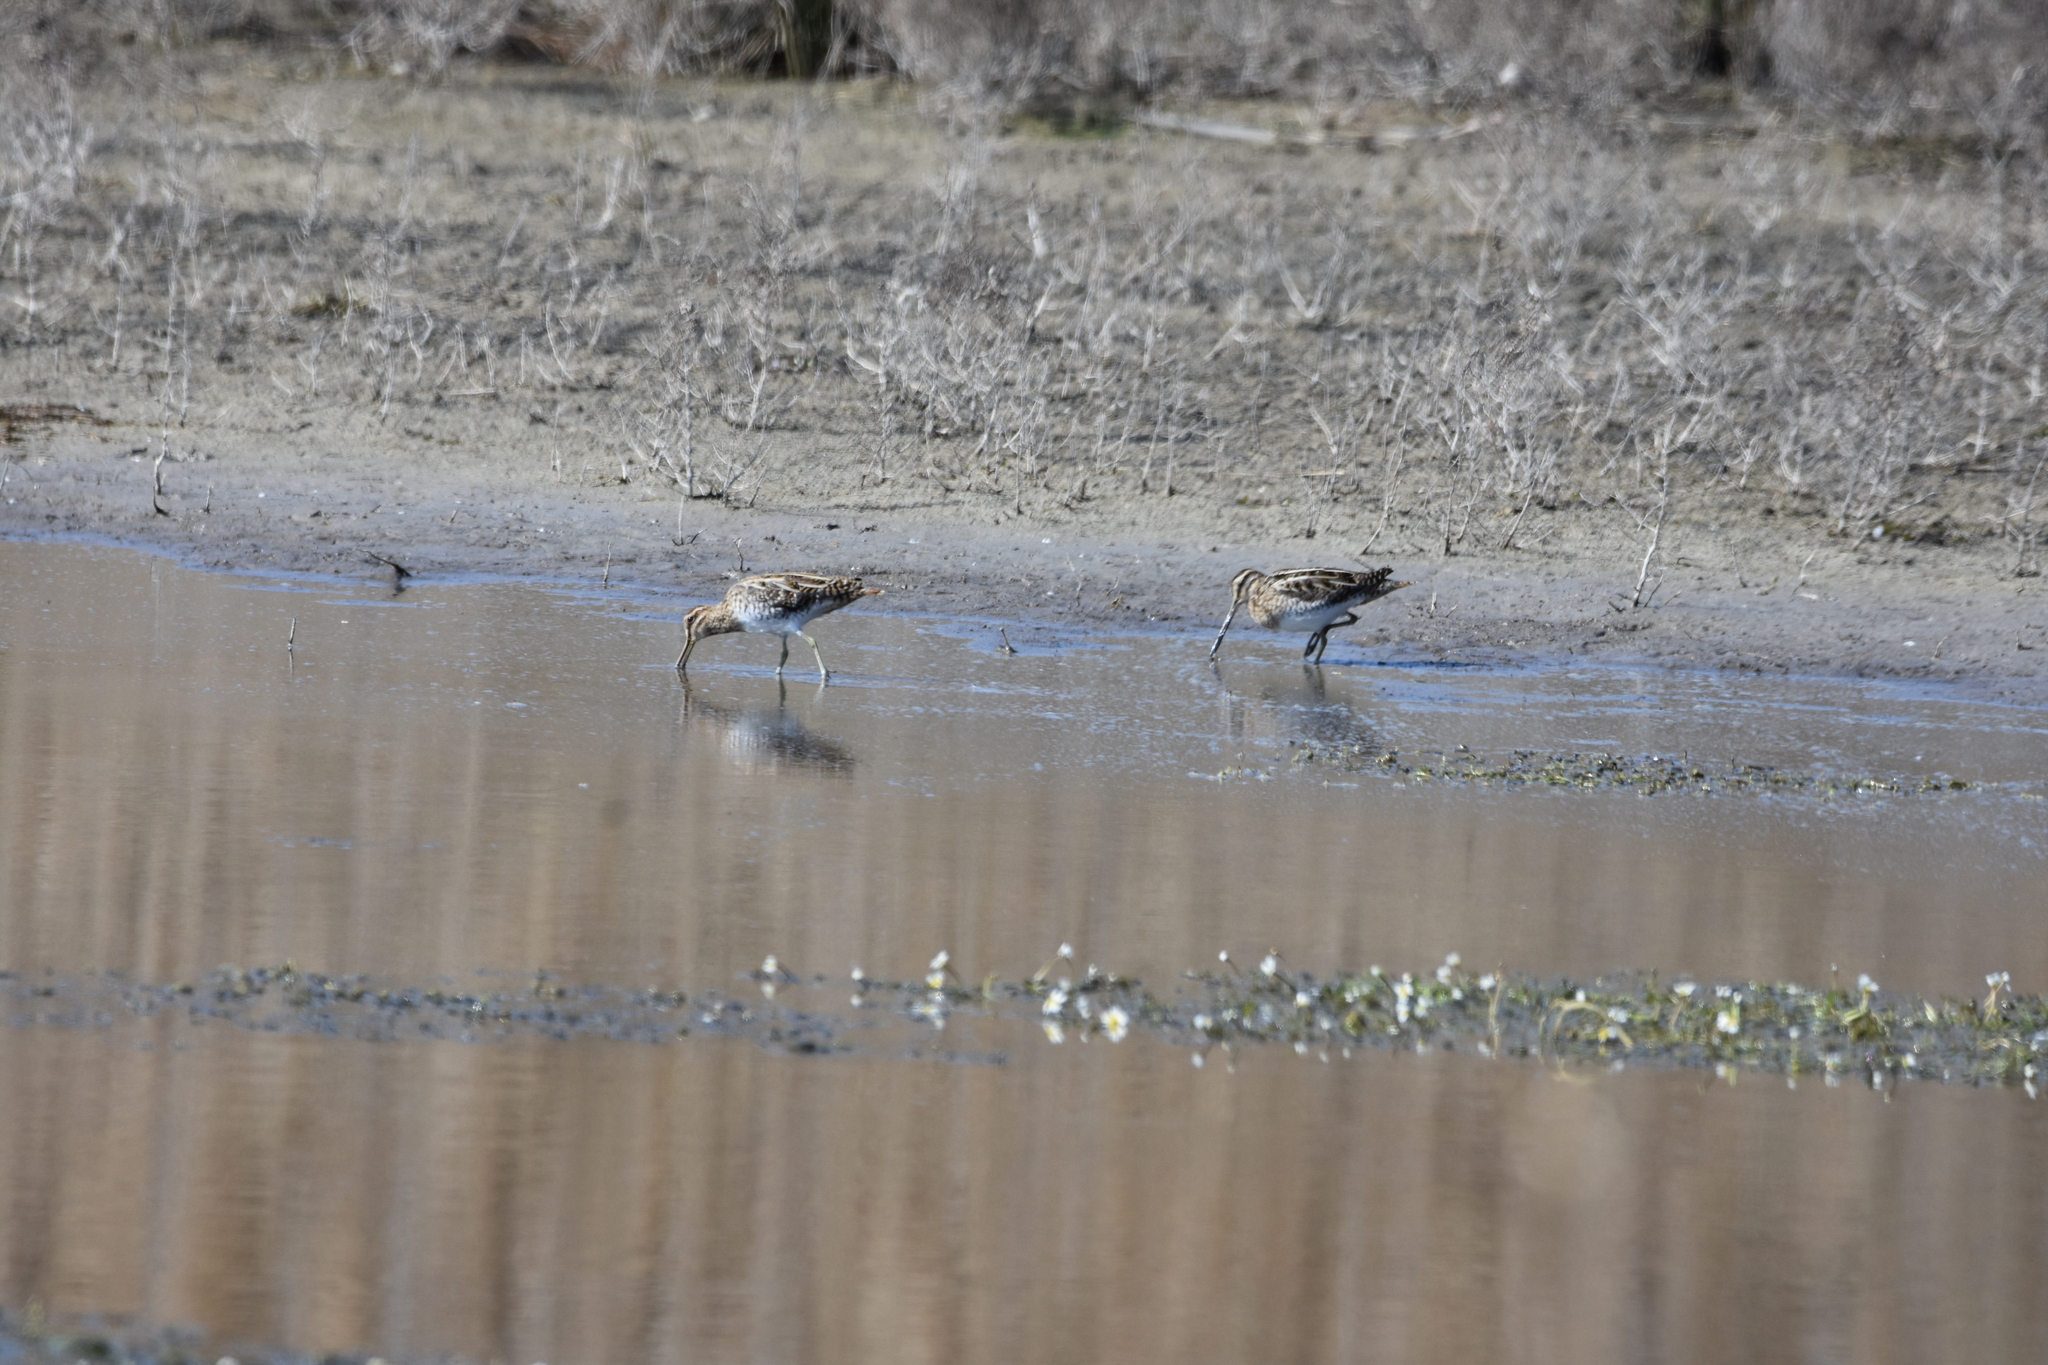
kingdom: Animalia
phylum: Chordata
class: Aves
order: Charadriiformes
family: Scolopacidae
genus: Gallinago
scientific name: Gallinago gallinago
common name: Common snipe
